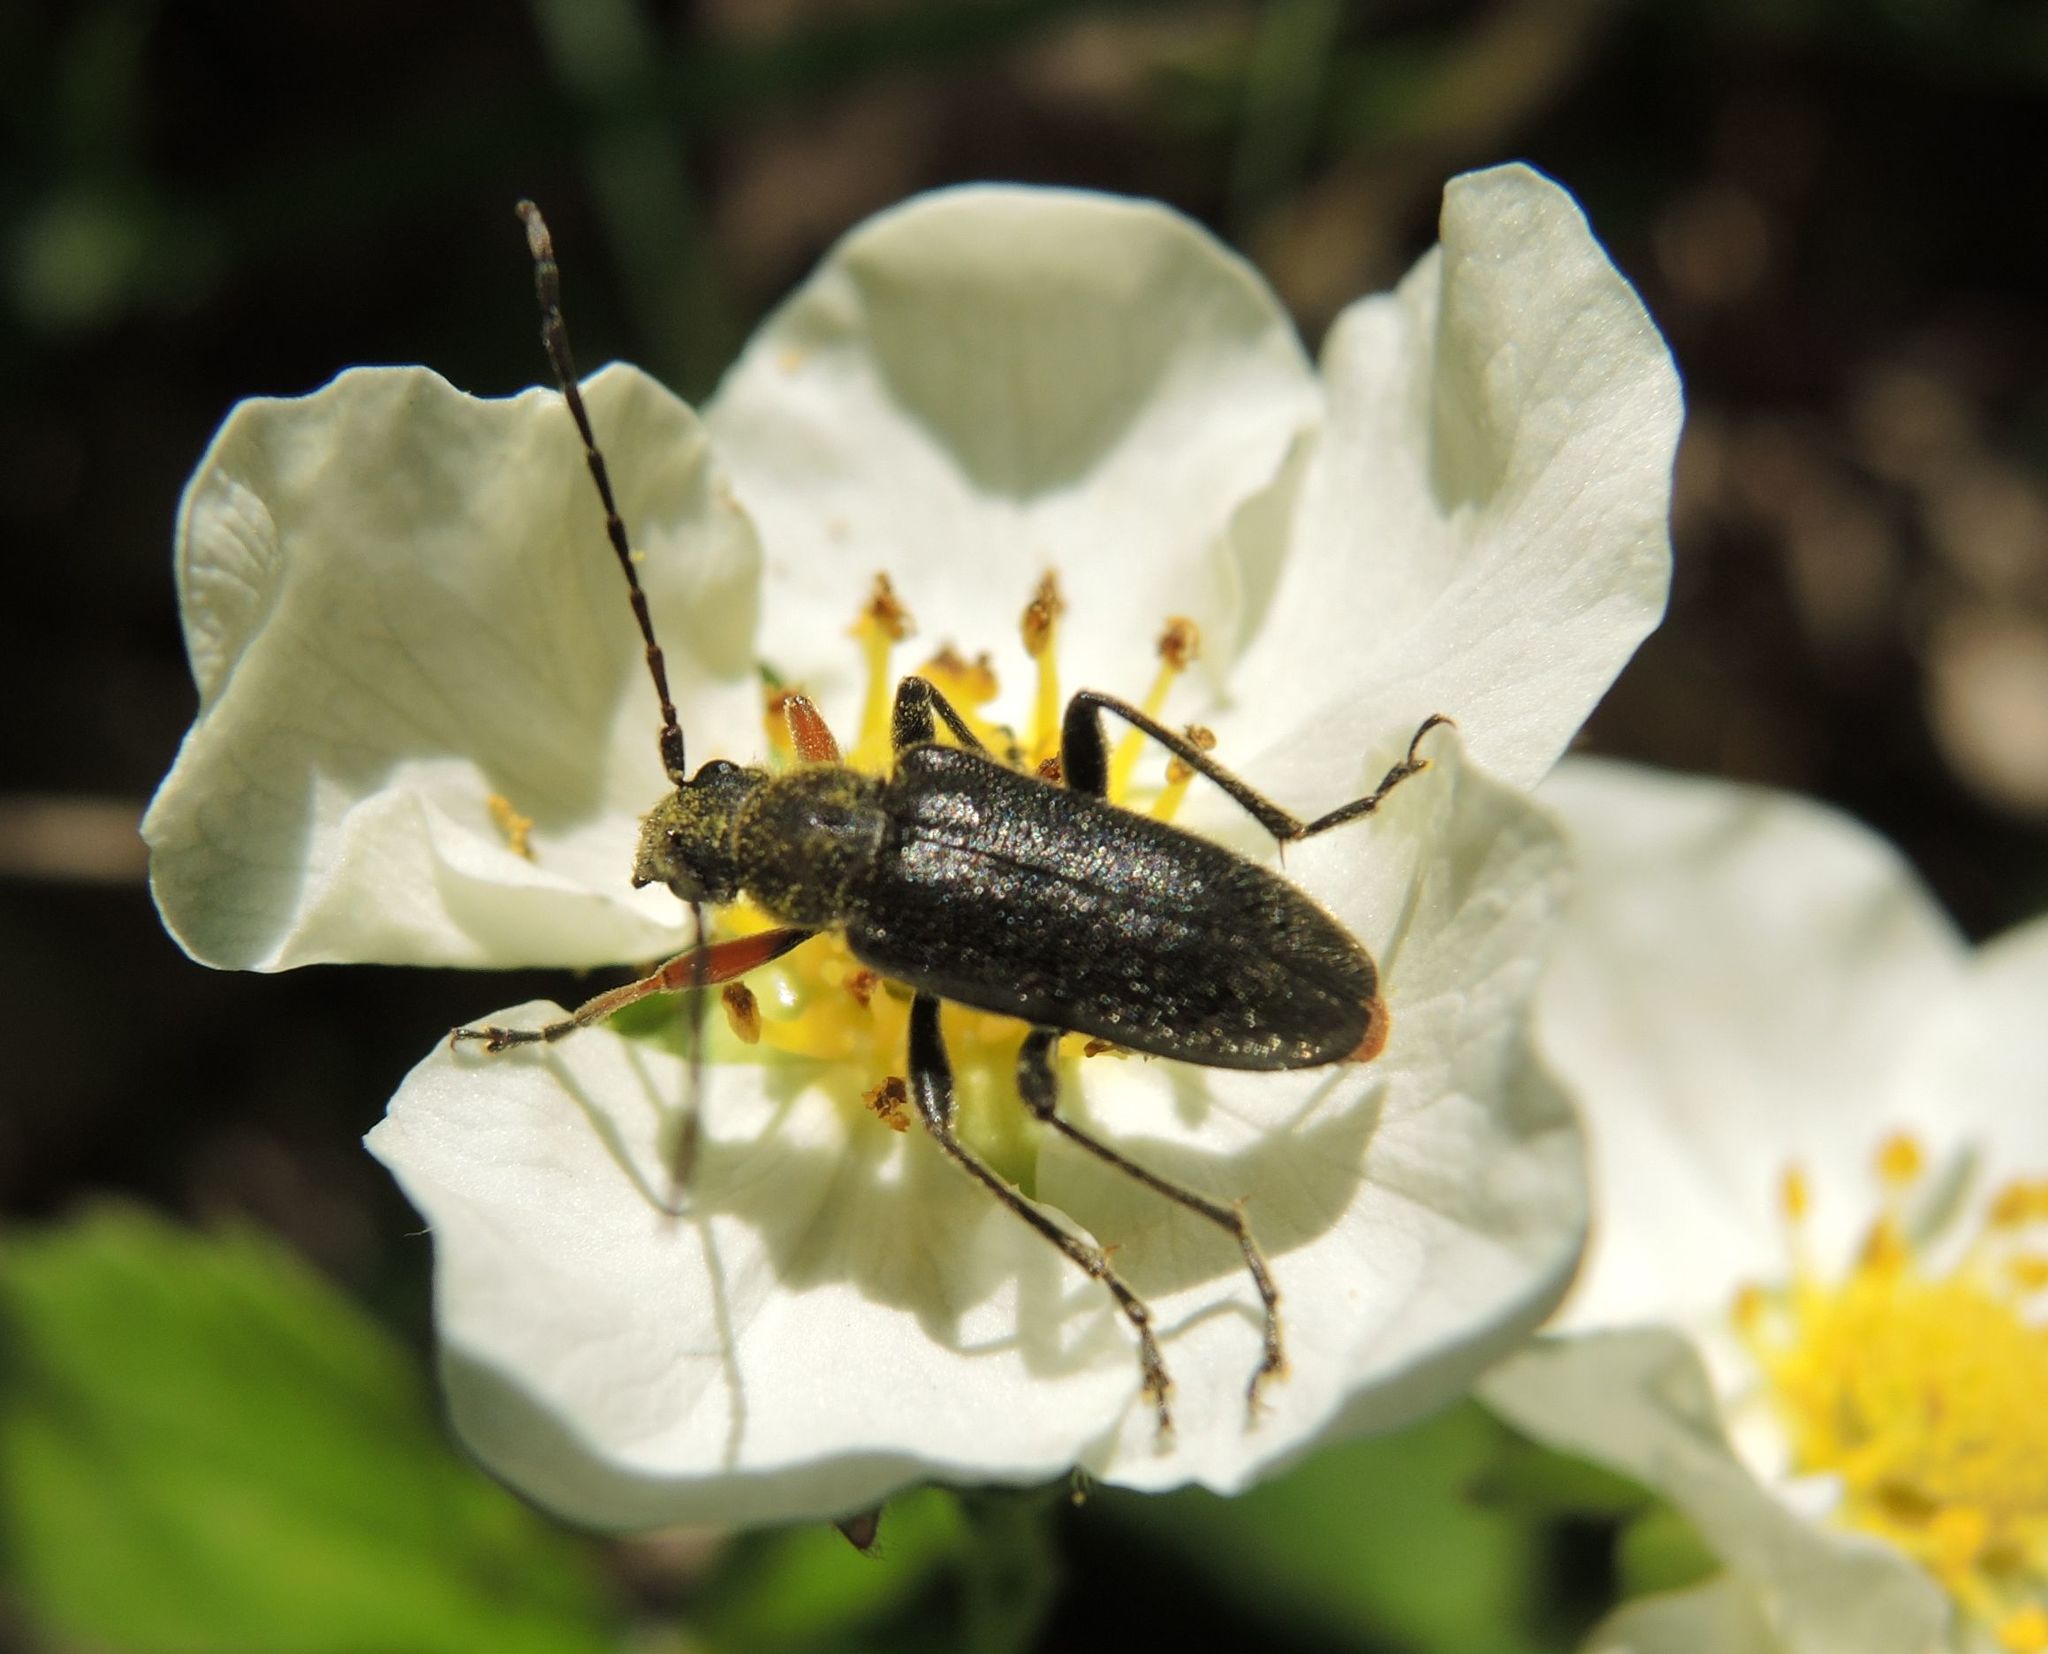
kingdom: Animalia
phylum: Arthropoda
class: Insecta
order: Coleoptera
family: Cerambycidae
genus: Cortodera
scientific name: Cortodera flavimana
